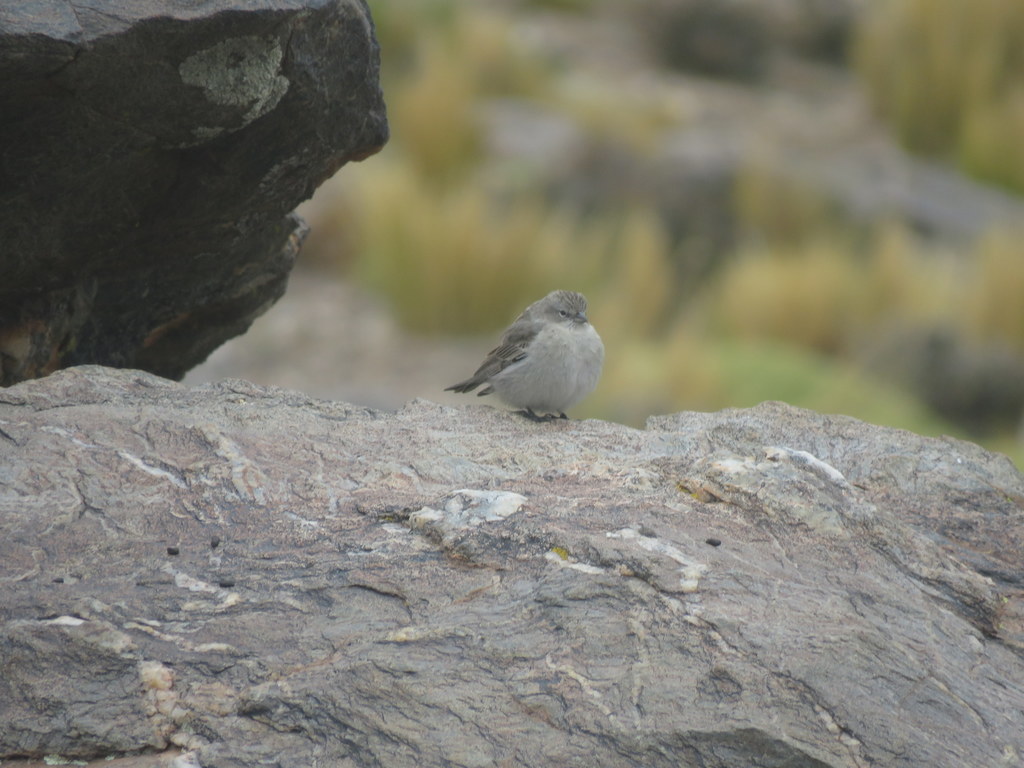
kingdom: Animalia
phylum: Chordata
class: Aves
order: Passeriformes
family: Thraupidae
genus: Geospizopsis
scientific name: Geospizopsis plebejus
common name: Ash-breasted sierra-finch
